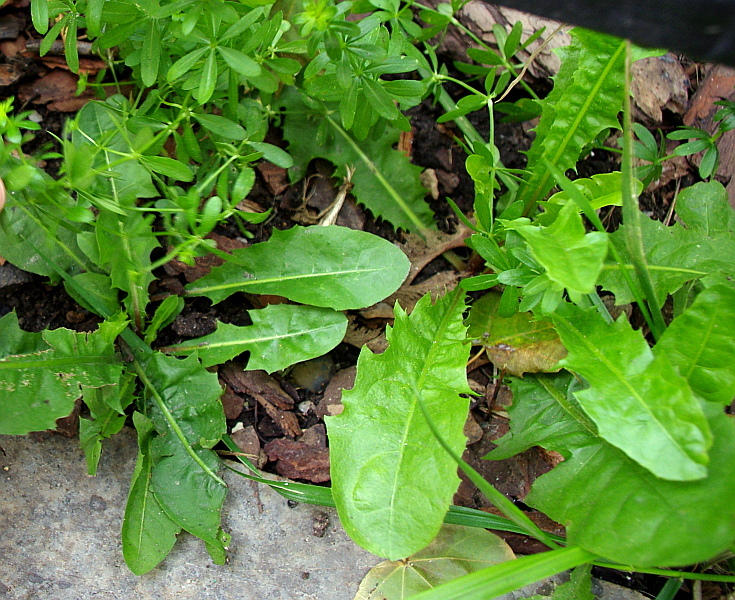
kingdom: Plantae
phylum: Tracheophyta
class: Magnoliopsida
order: Asterales
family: Asteraceae
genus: Taraxacum
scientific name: Taraxacum officinale
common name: Common dandelion
